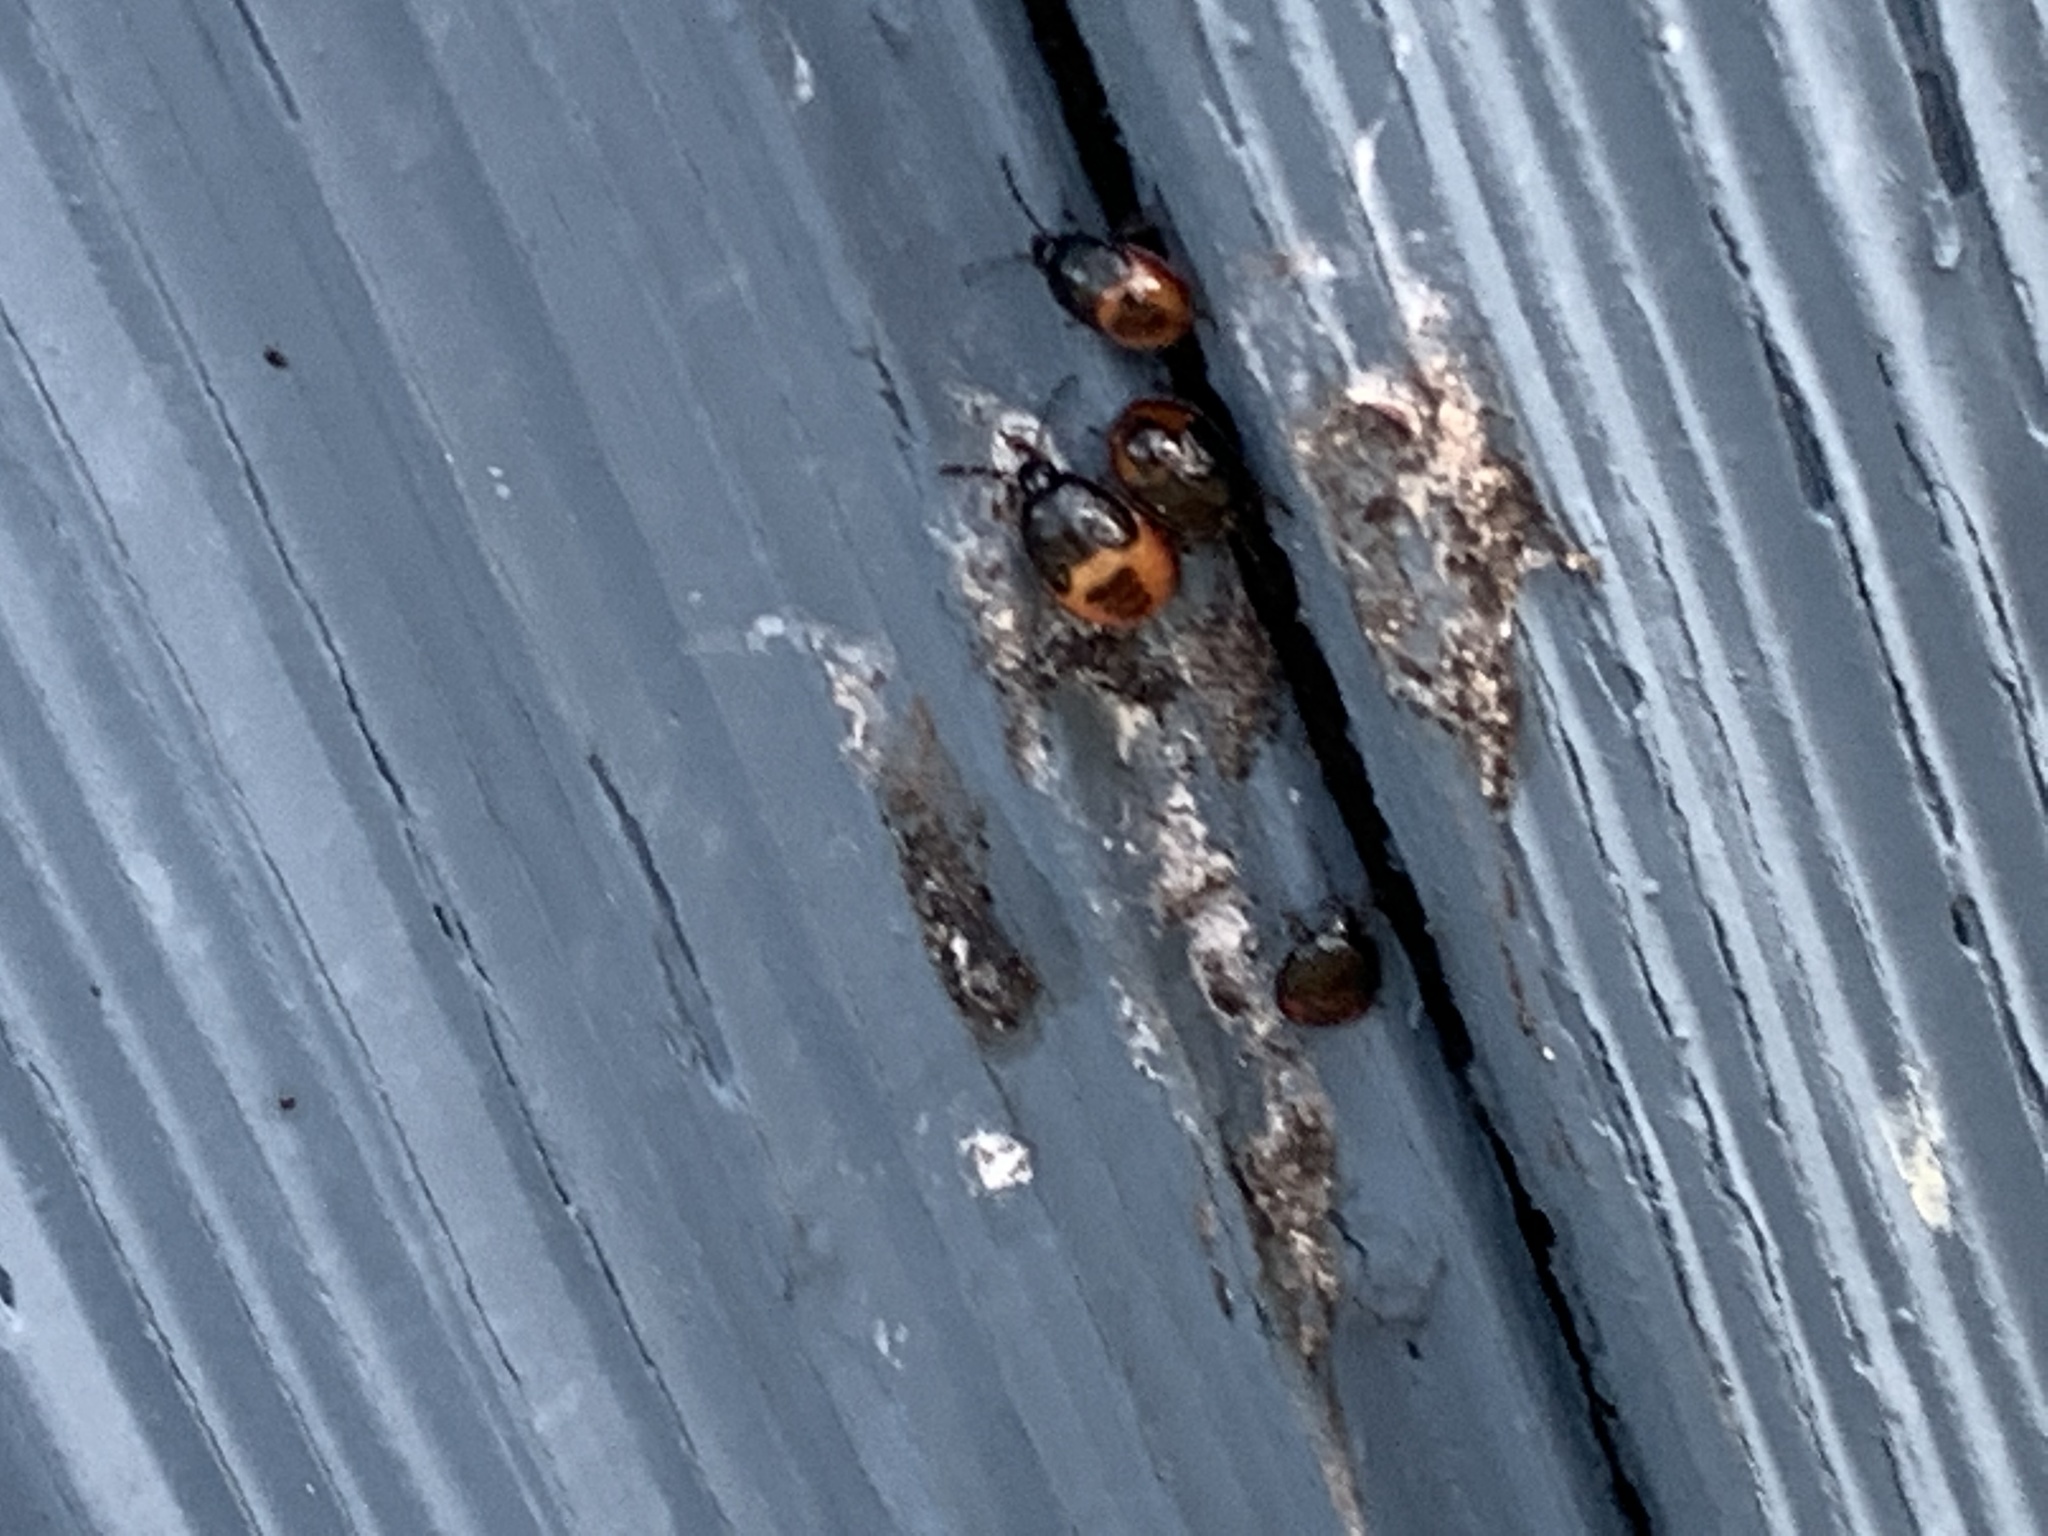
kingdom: Animalia
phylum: Arthropoda
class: Insecta
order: Hemiptera
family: Cydnidae
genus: Sehirus
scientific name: Sehirus cinctus
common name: White-margined burrower bug
